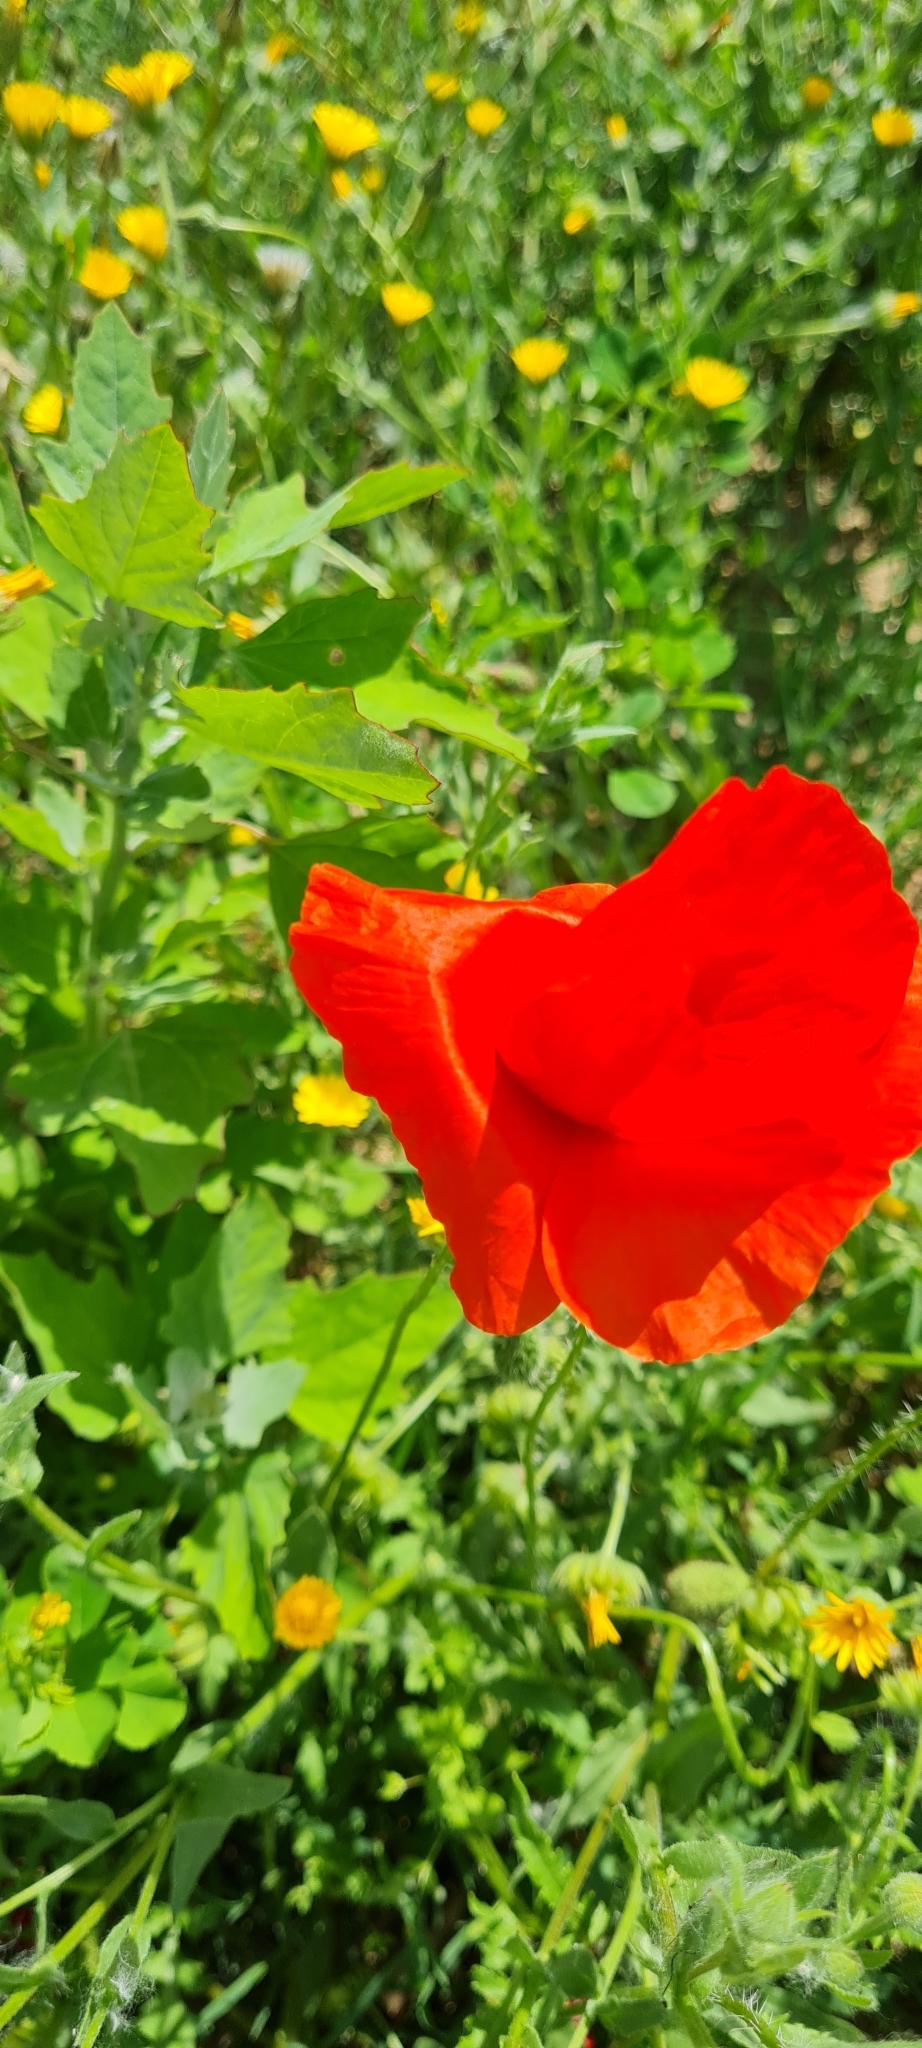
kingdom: Plantae
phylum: Tracheophyta
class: Magnoliopsida
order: Ranunculales
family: Papaveraceae
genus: Papaver
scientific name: Papaver rhoeas
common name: Corn poppy
